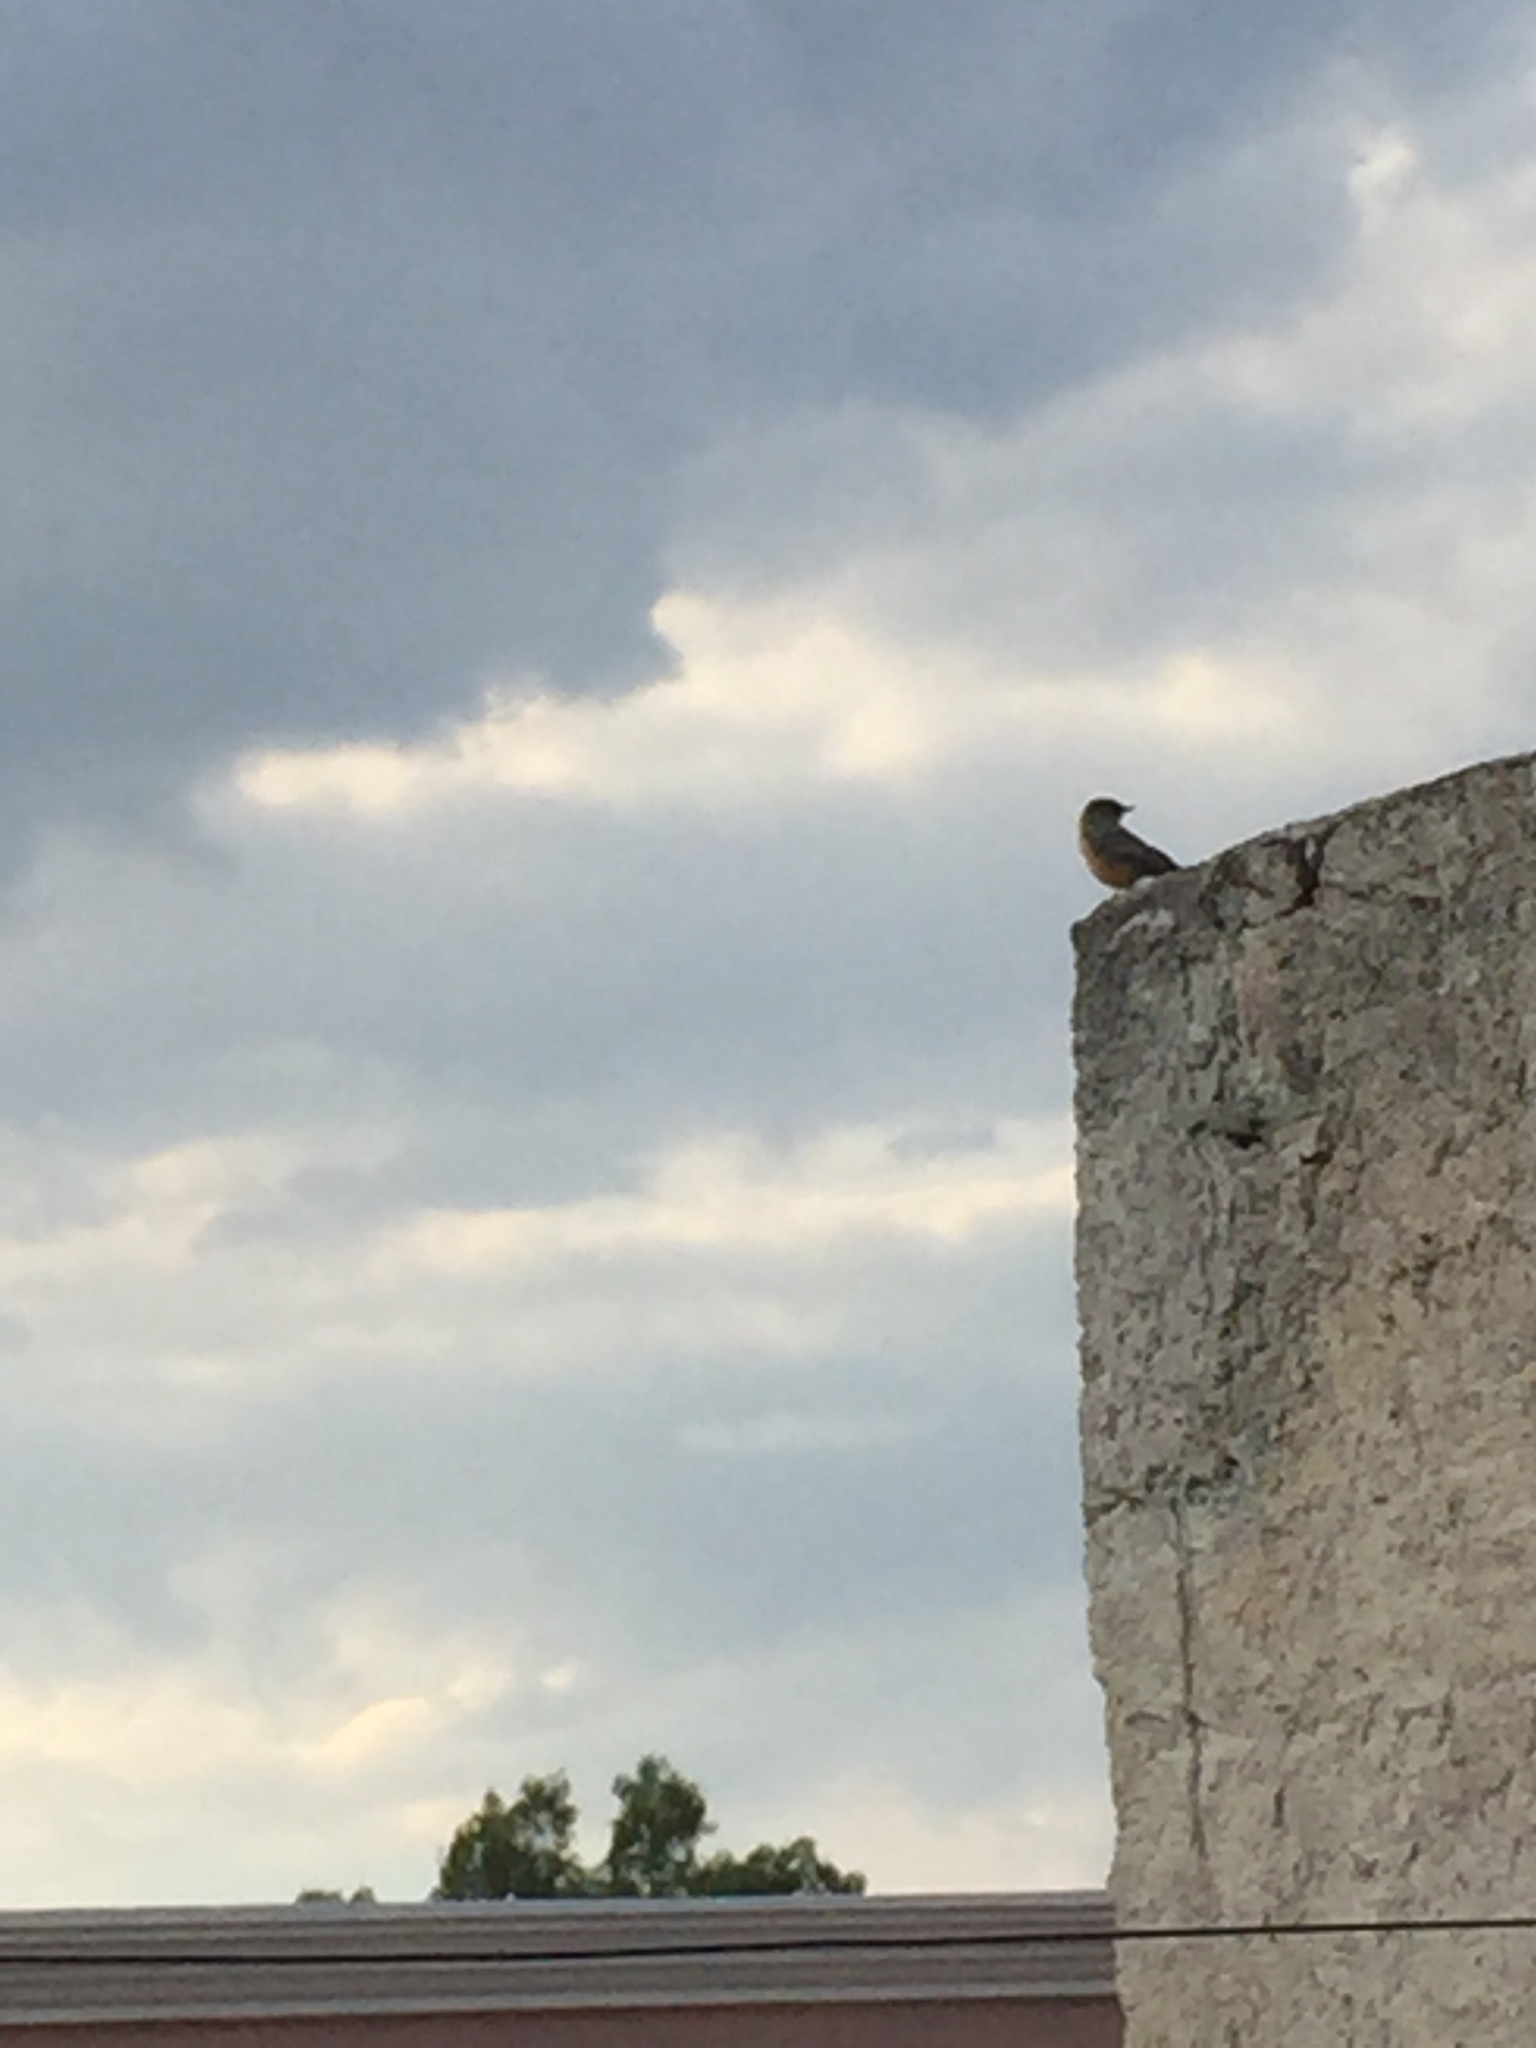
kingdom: Animalia
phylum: Chordata
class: Aves
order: Passeriformes
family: Tyrannidae
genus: Sayornis
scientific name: Sayornis saya
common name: Say's phoebe
